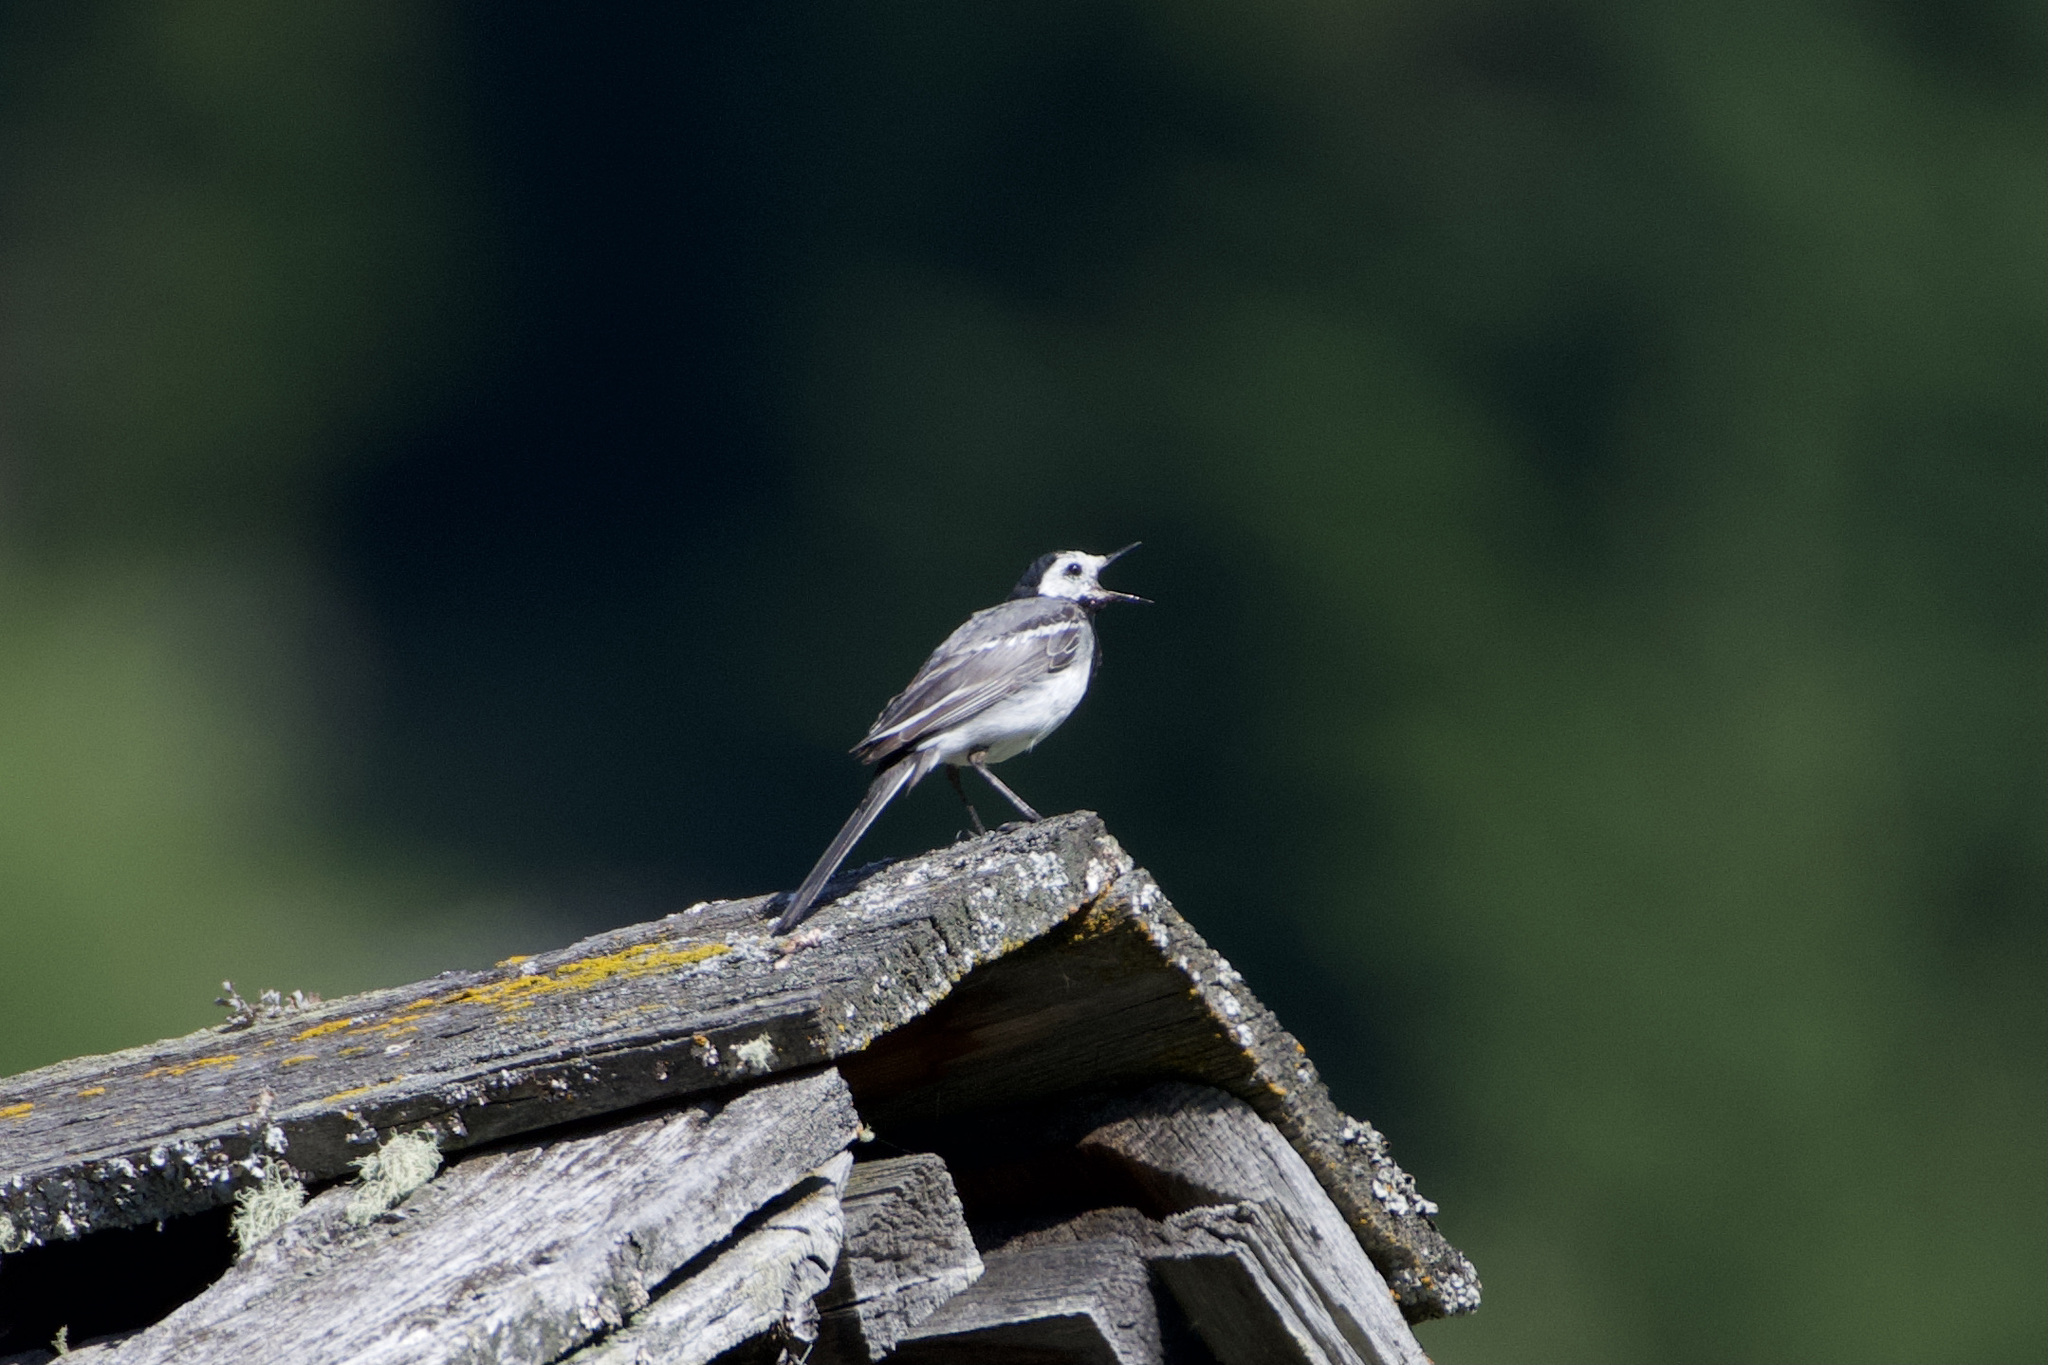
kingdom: Animalia
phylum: Chordata
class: Aves
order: Passeriformes
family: Motacillidae
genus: Motacilla
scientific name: Motacilla alba
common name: White wagtail
